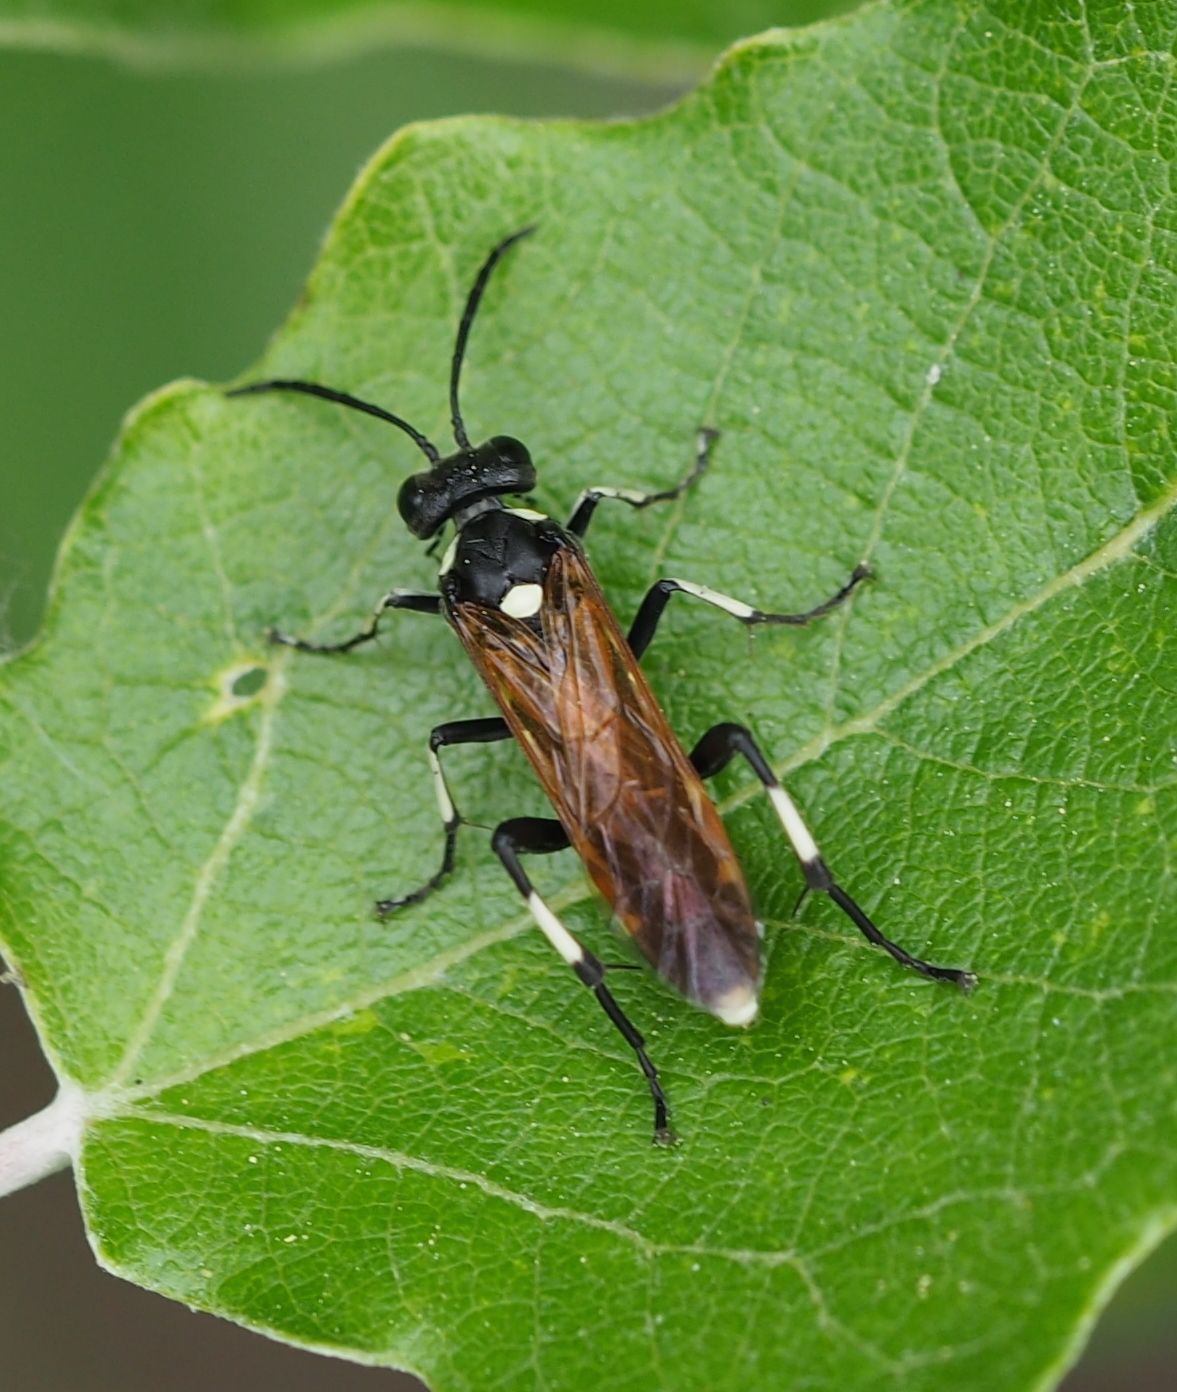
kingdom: Animalia
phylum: Arthropoda
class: Insecta
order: Hymenoptera
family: Tenthredinidae
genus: Macrophya
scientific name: Macrophya duodecimpunctata
